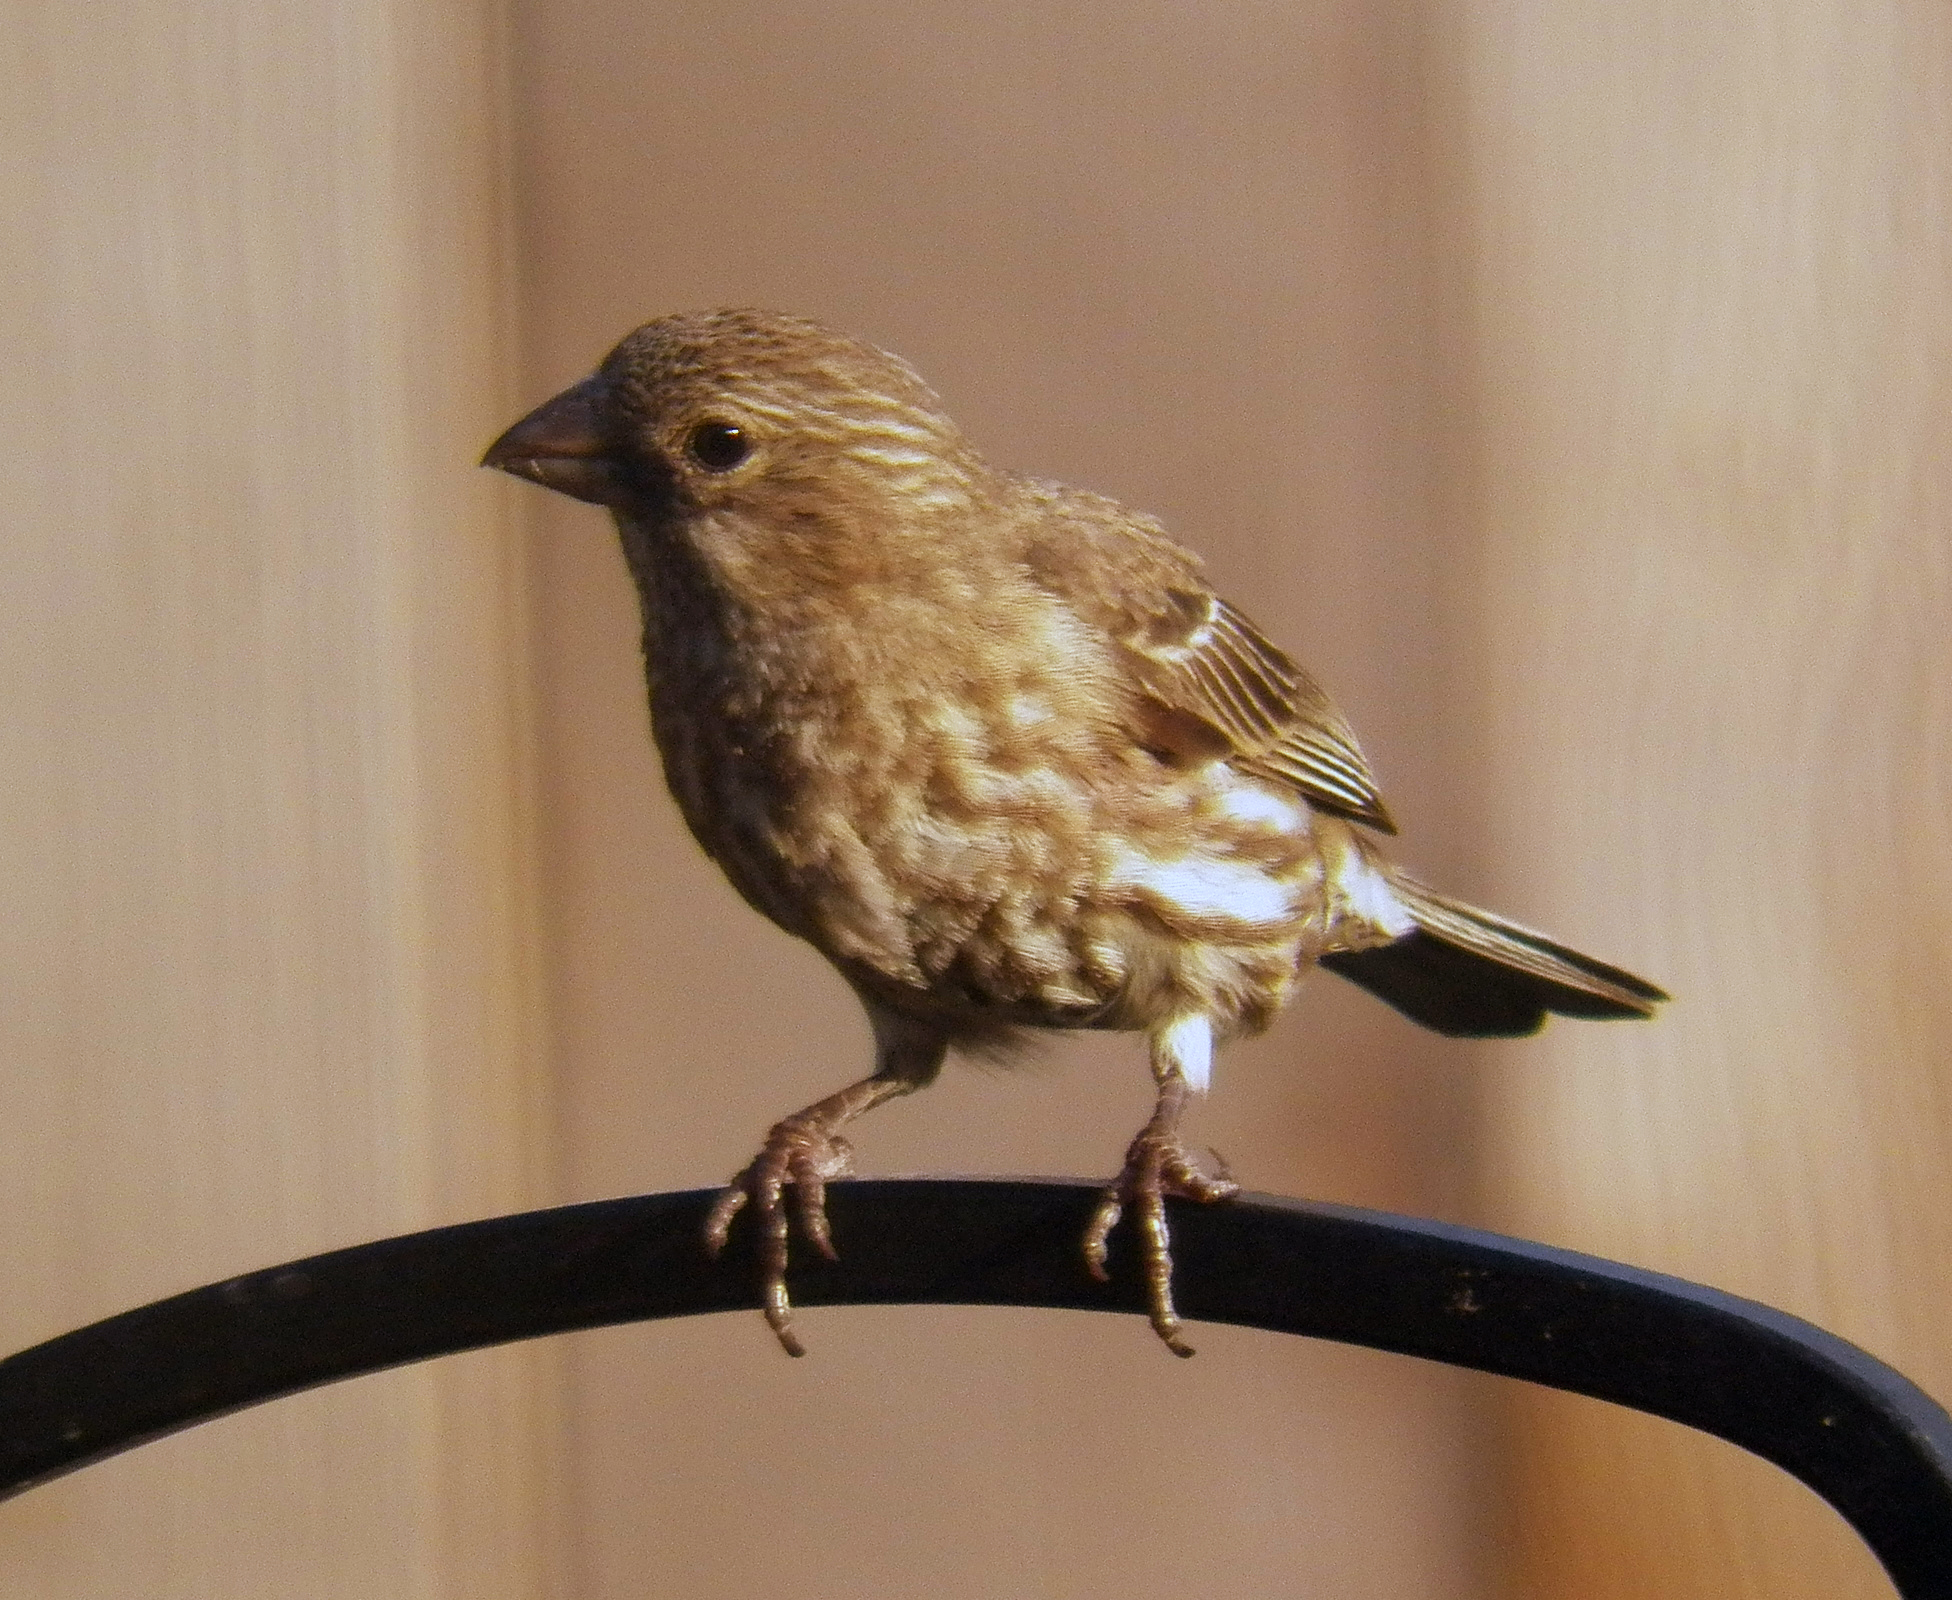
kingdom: Animalia
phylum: Chordata
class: Aves
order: Passeriformes
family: Fringillidae
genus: Haemorhous
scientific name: Haemorhous mexicanus
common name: House finch
